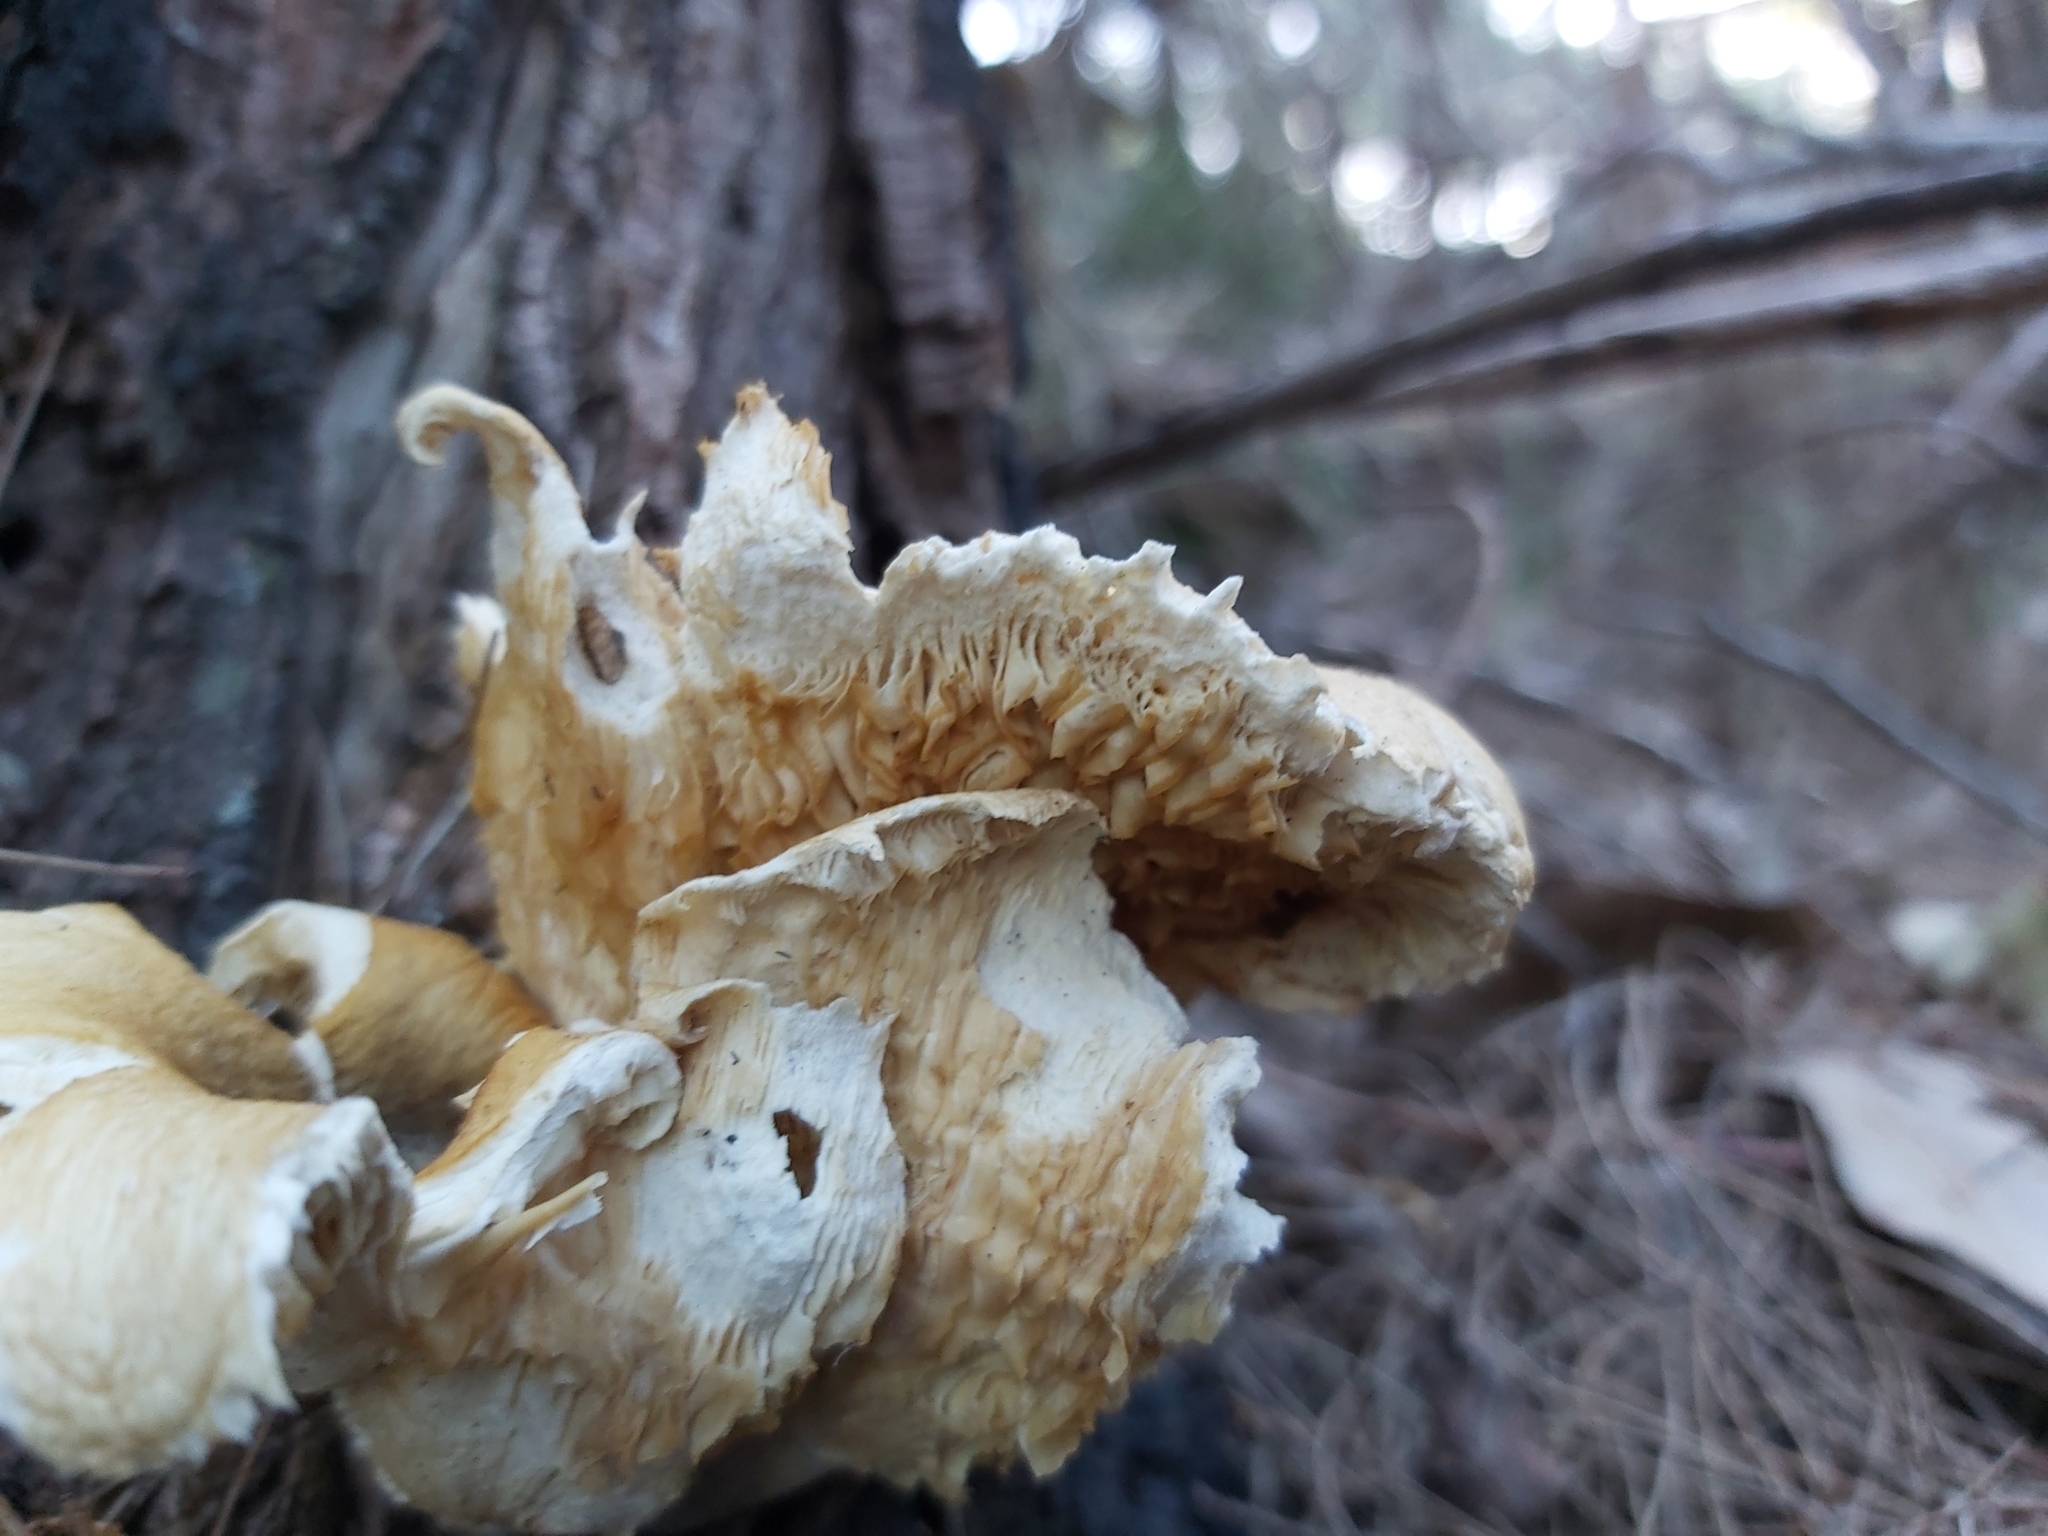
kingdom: Fungi
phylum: Basidiomycota
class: Agaricomycetes
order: Agaricales
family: Omphalotaceae
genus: Omphalotus
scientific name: Omphalotus nidiformis
